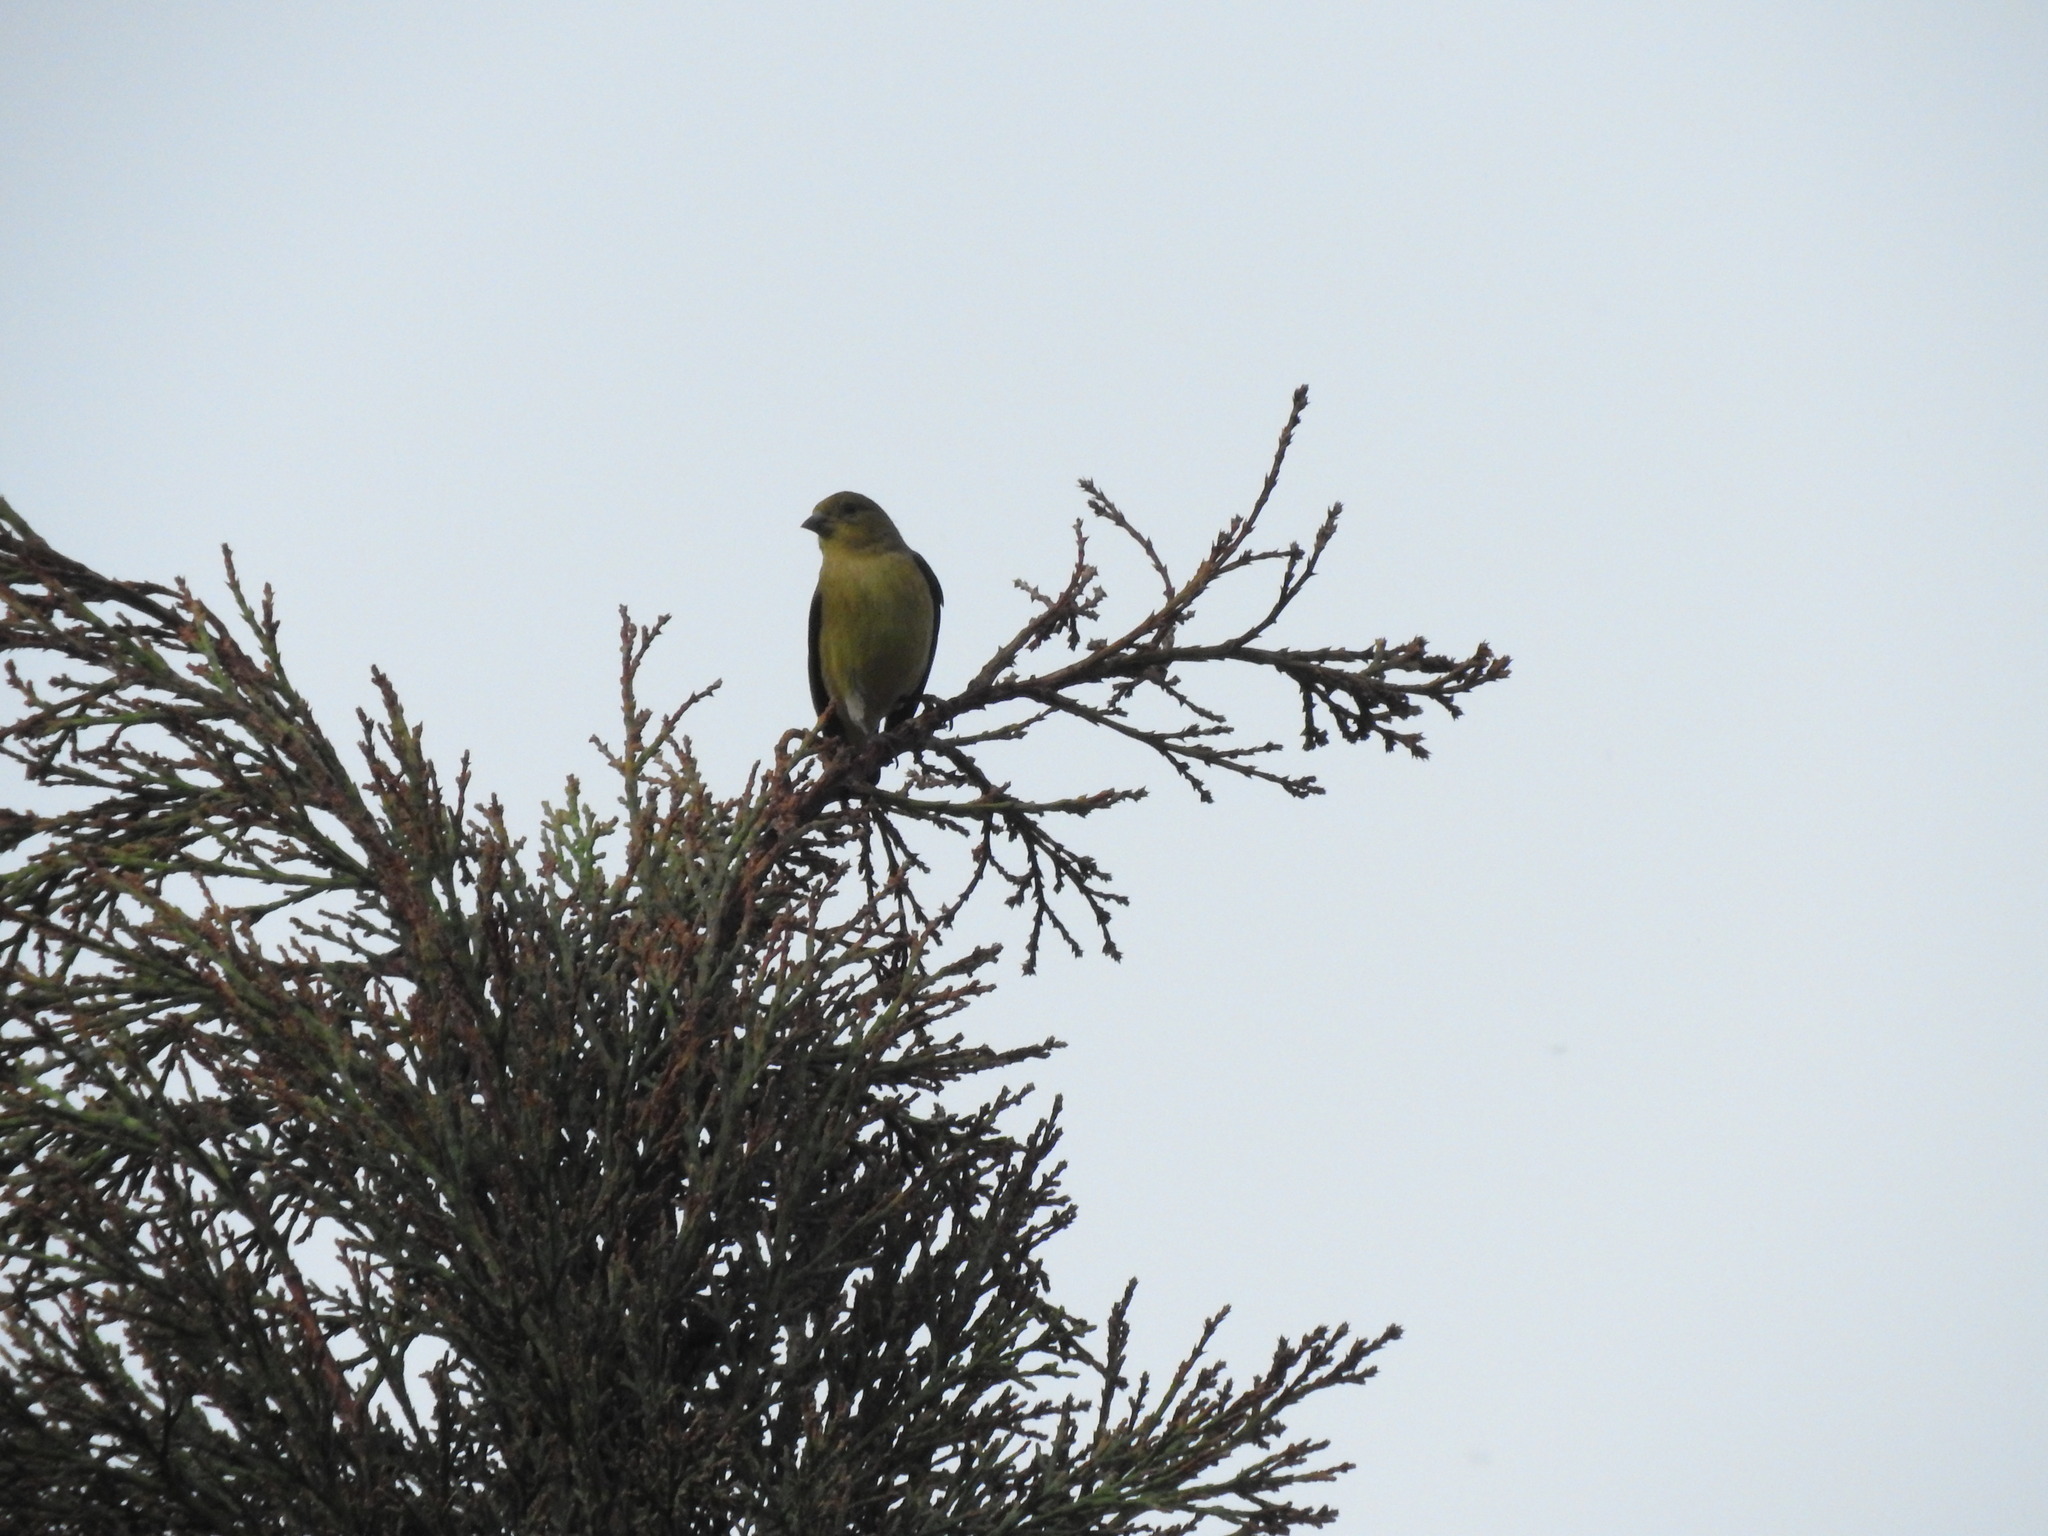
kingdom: Animalia
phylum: Chordata
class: Aves
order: Passeriformes
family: Fringillidae
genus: Spinus
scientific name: Spinus psaltria
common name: Lesser goldfinch
